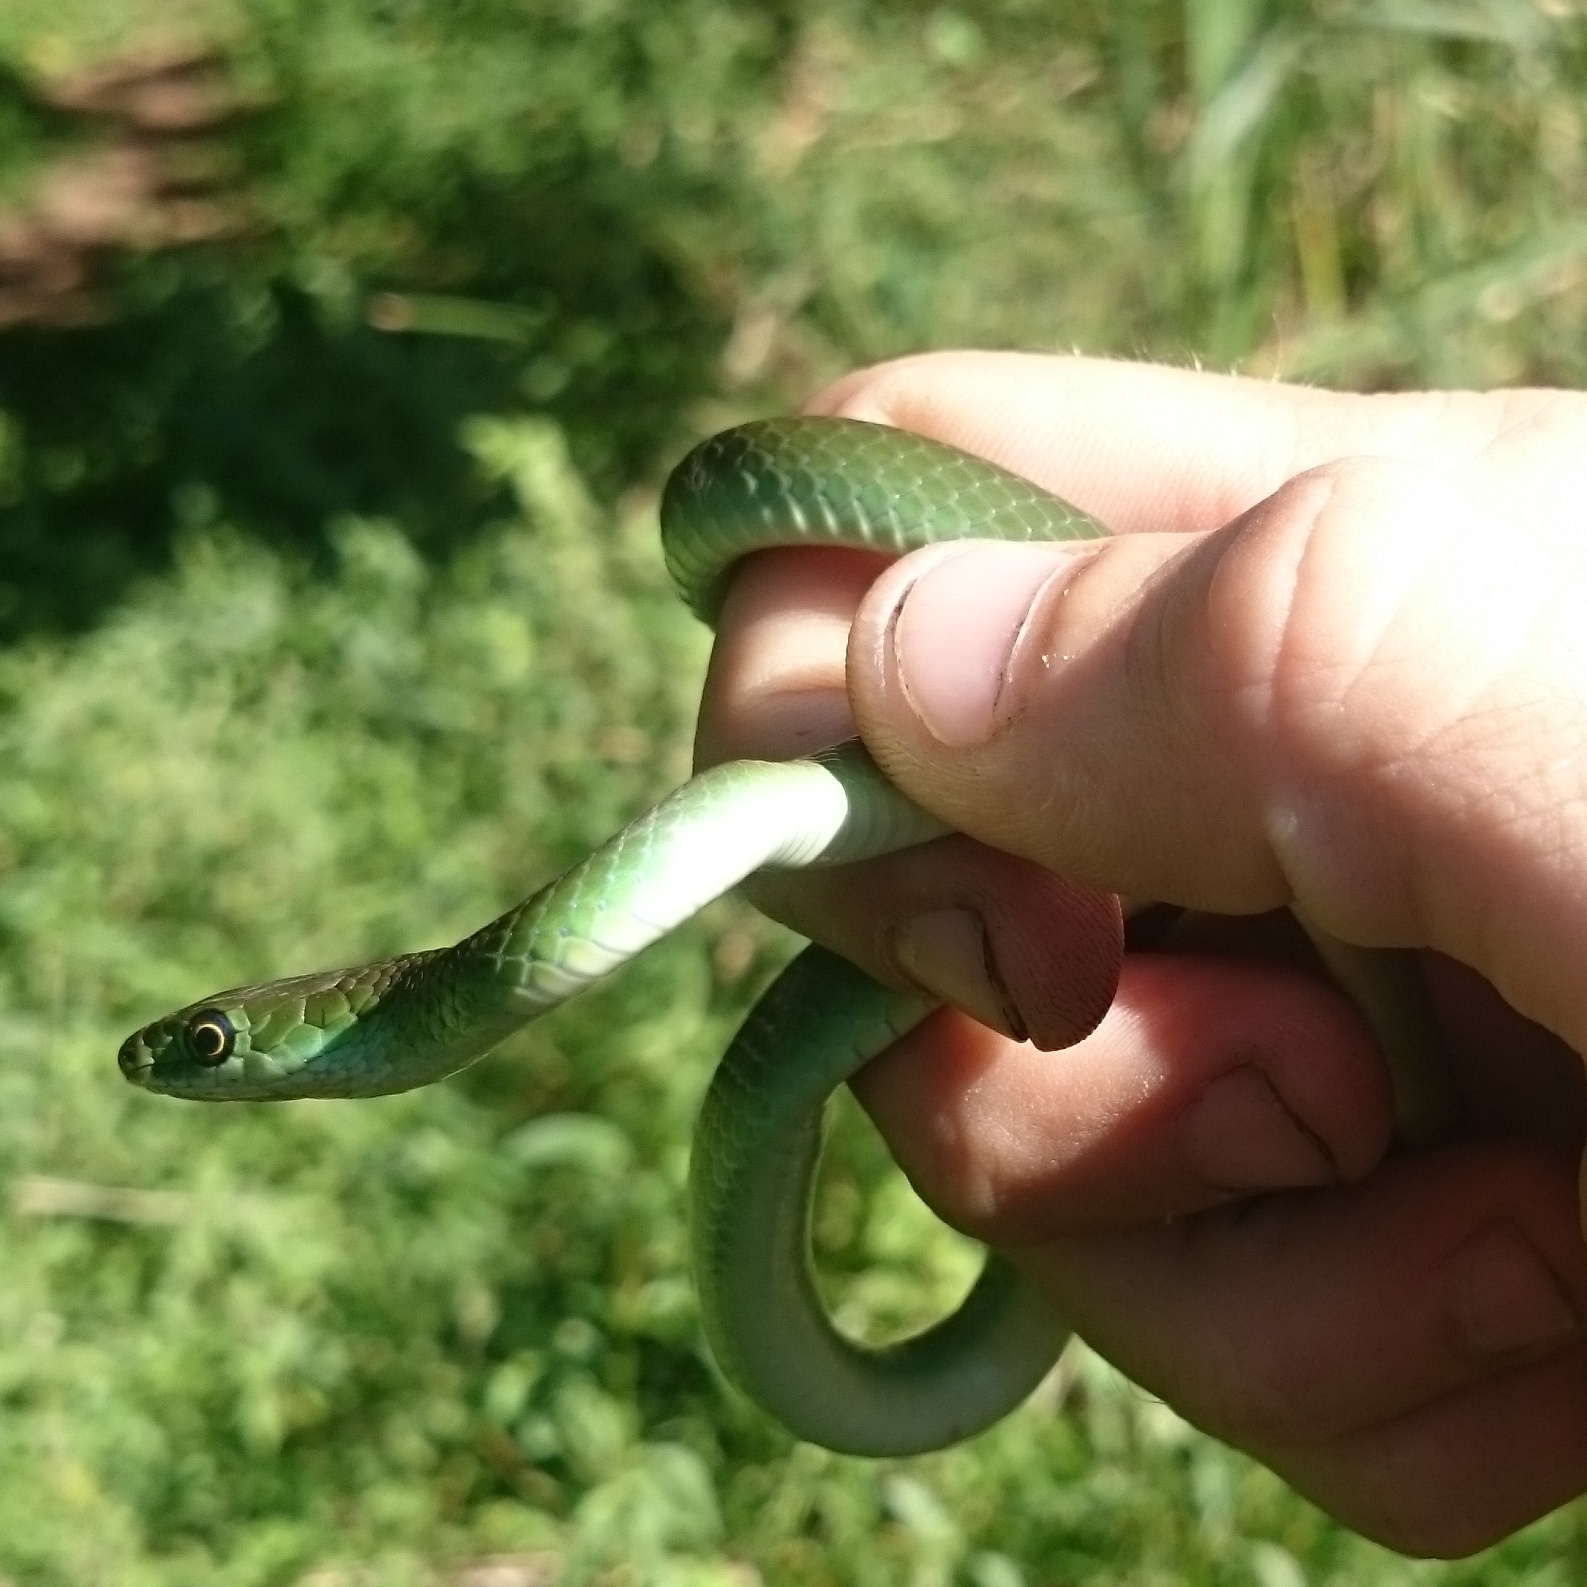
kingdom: Animalia
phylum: Chordata
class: Squamata
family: Colubridae
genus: Philothamnus
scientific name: Philothamnus hoplogaster
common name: Green water snake
